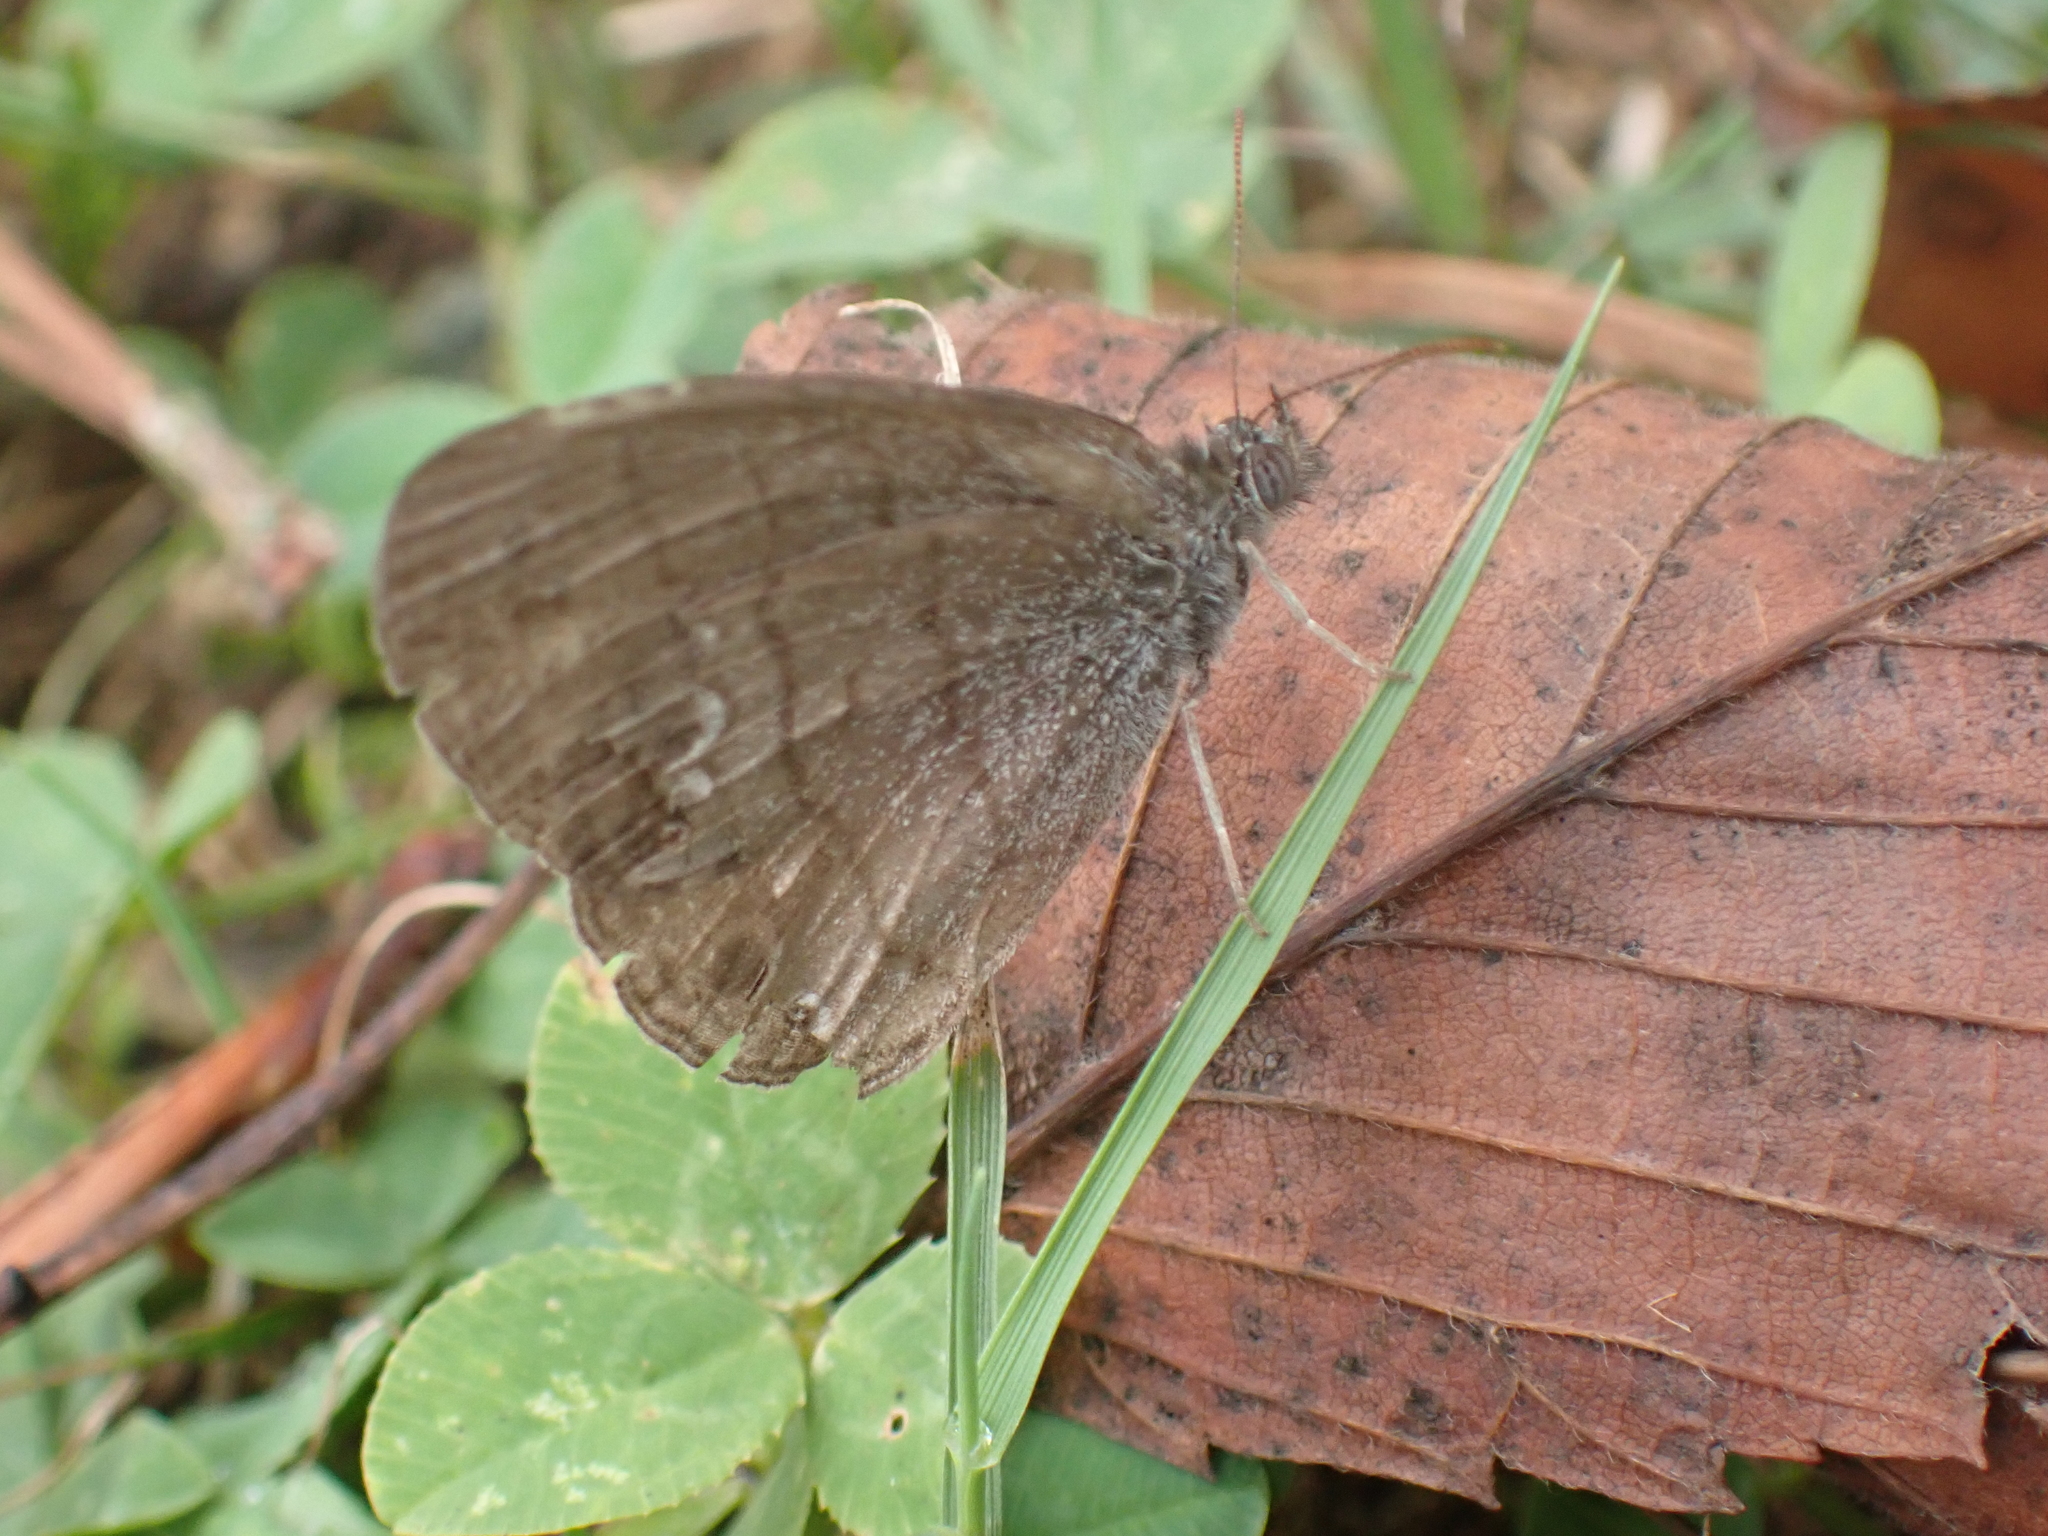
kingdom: Animalia
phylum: Arthropoda
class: Insecta
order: Lepidoptera
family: Nymphalidae
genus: Hermeuptychia
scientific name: Hermeuptychia hermes
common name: Hermes satyr
